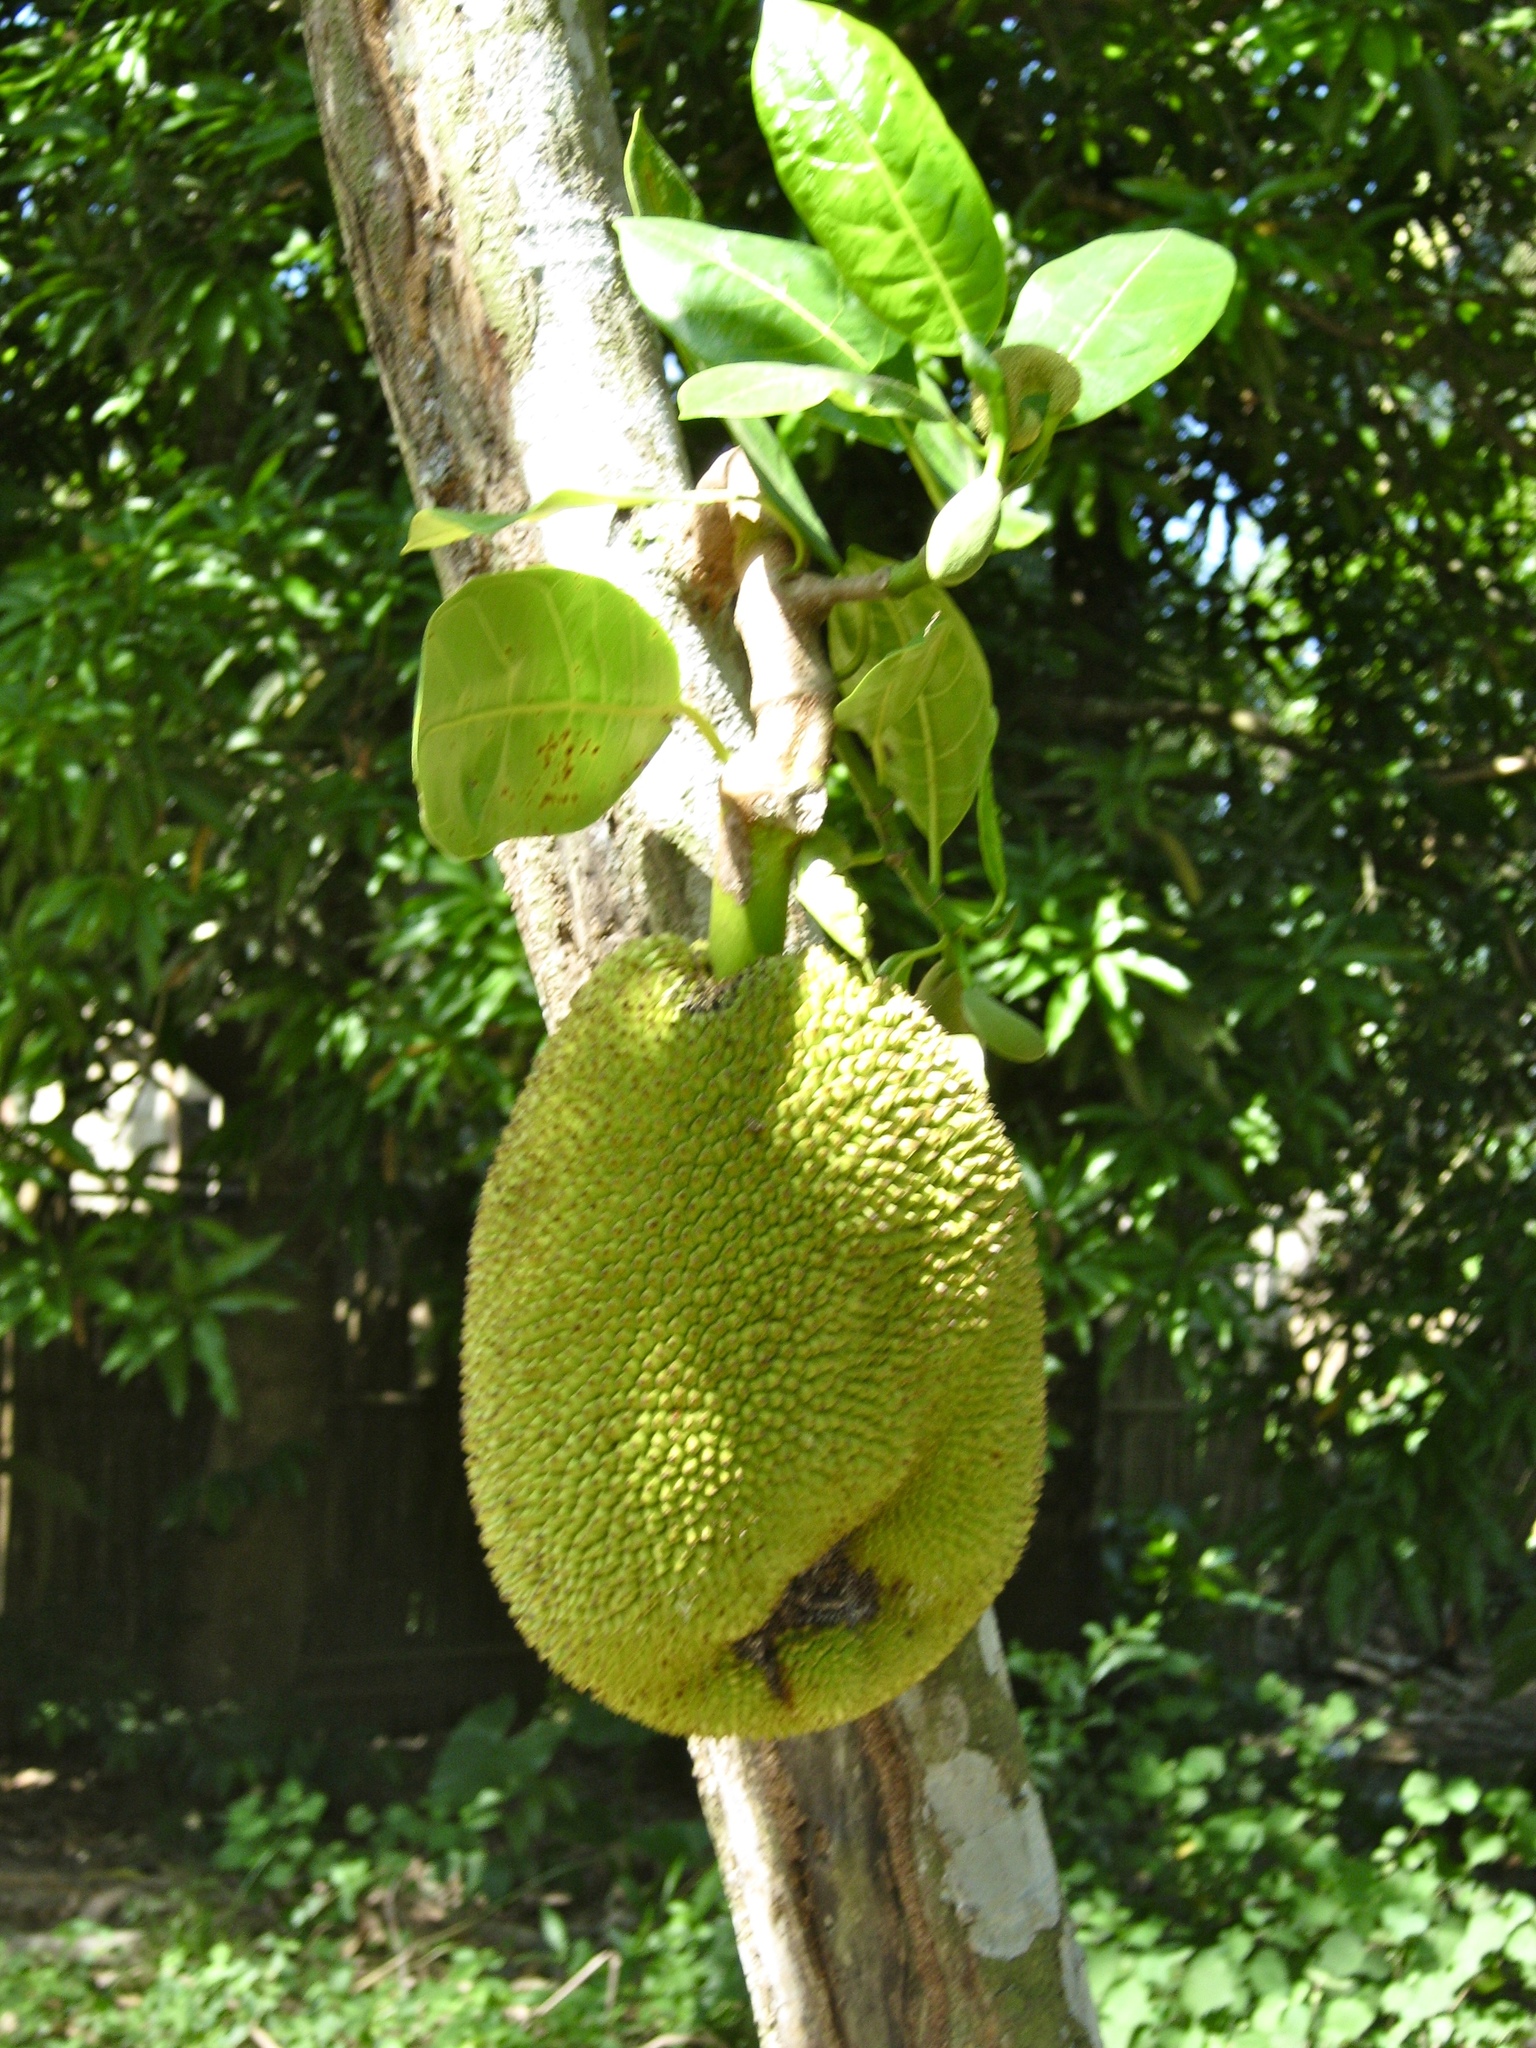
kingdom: Plantae
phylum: Tracheophyta
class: Magnoliopsida
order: Rosales
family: Moraceae
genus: Artocarpus
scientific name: Artocarpus heterophyllus
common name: Jackfruit
